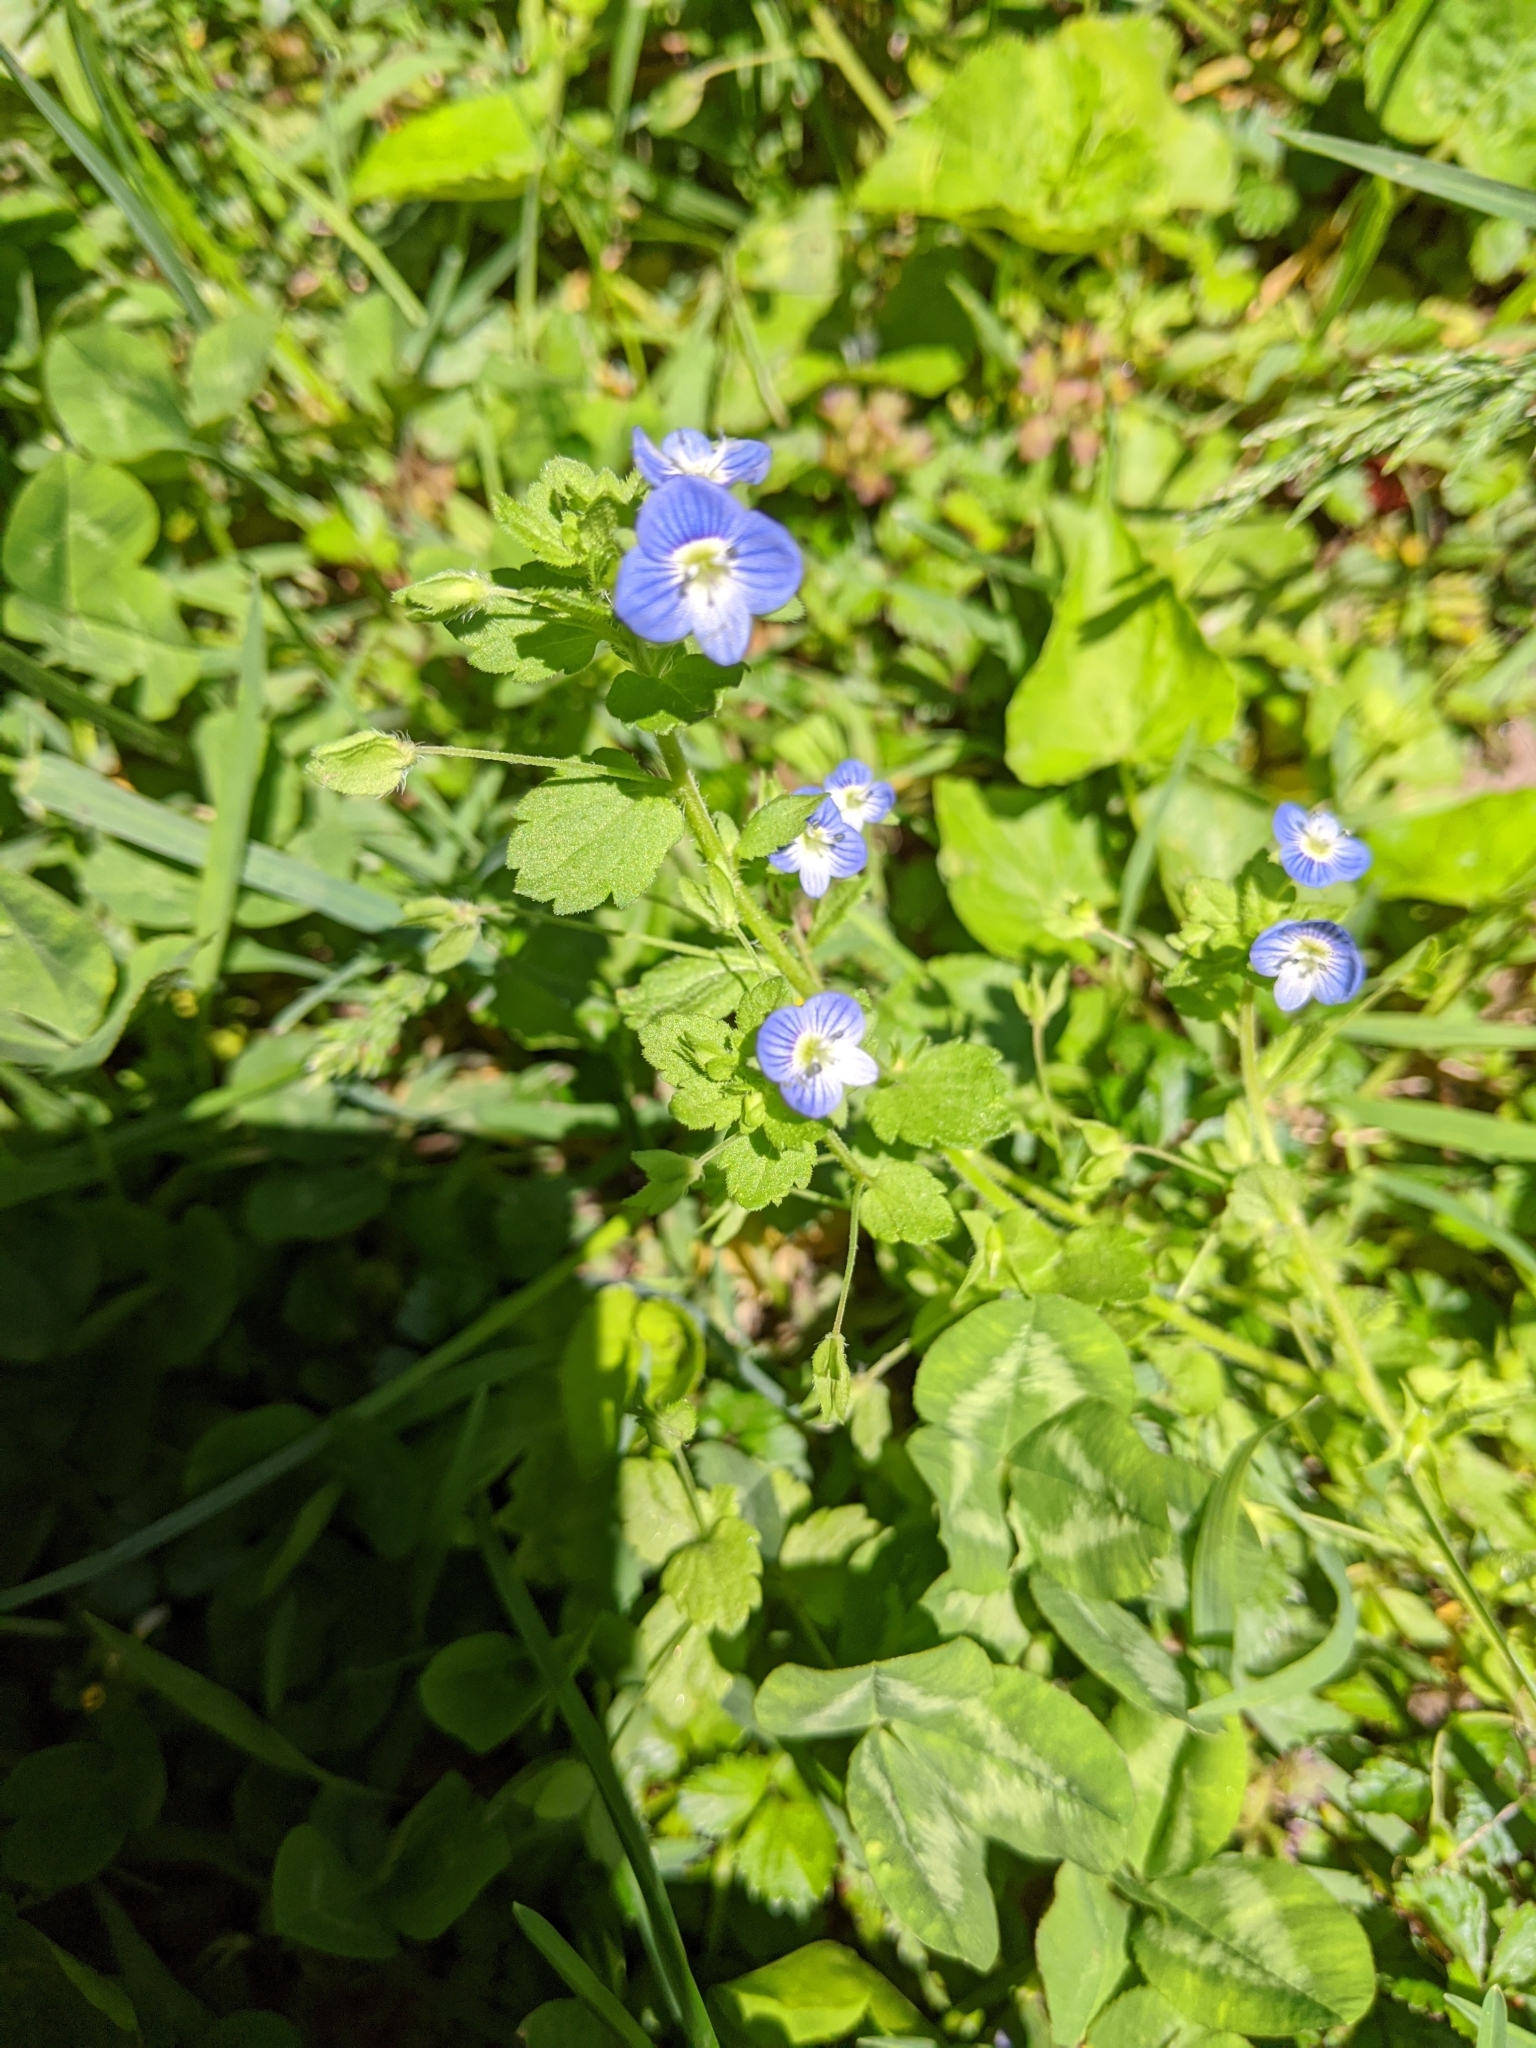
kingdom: Plantae
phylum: Tracheophyta
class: Magnoliopsida
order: Lamiales
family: Plantaginaceae
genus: Veronica
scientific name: Veronica persica
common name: Common field-speedwell
